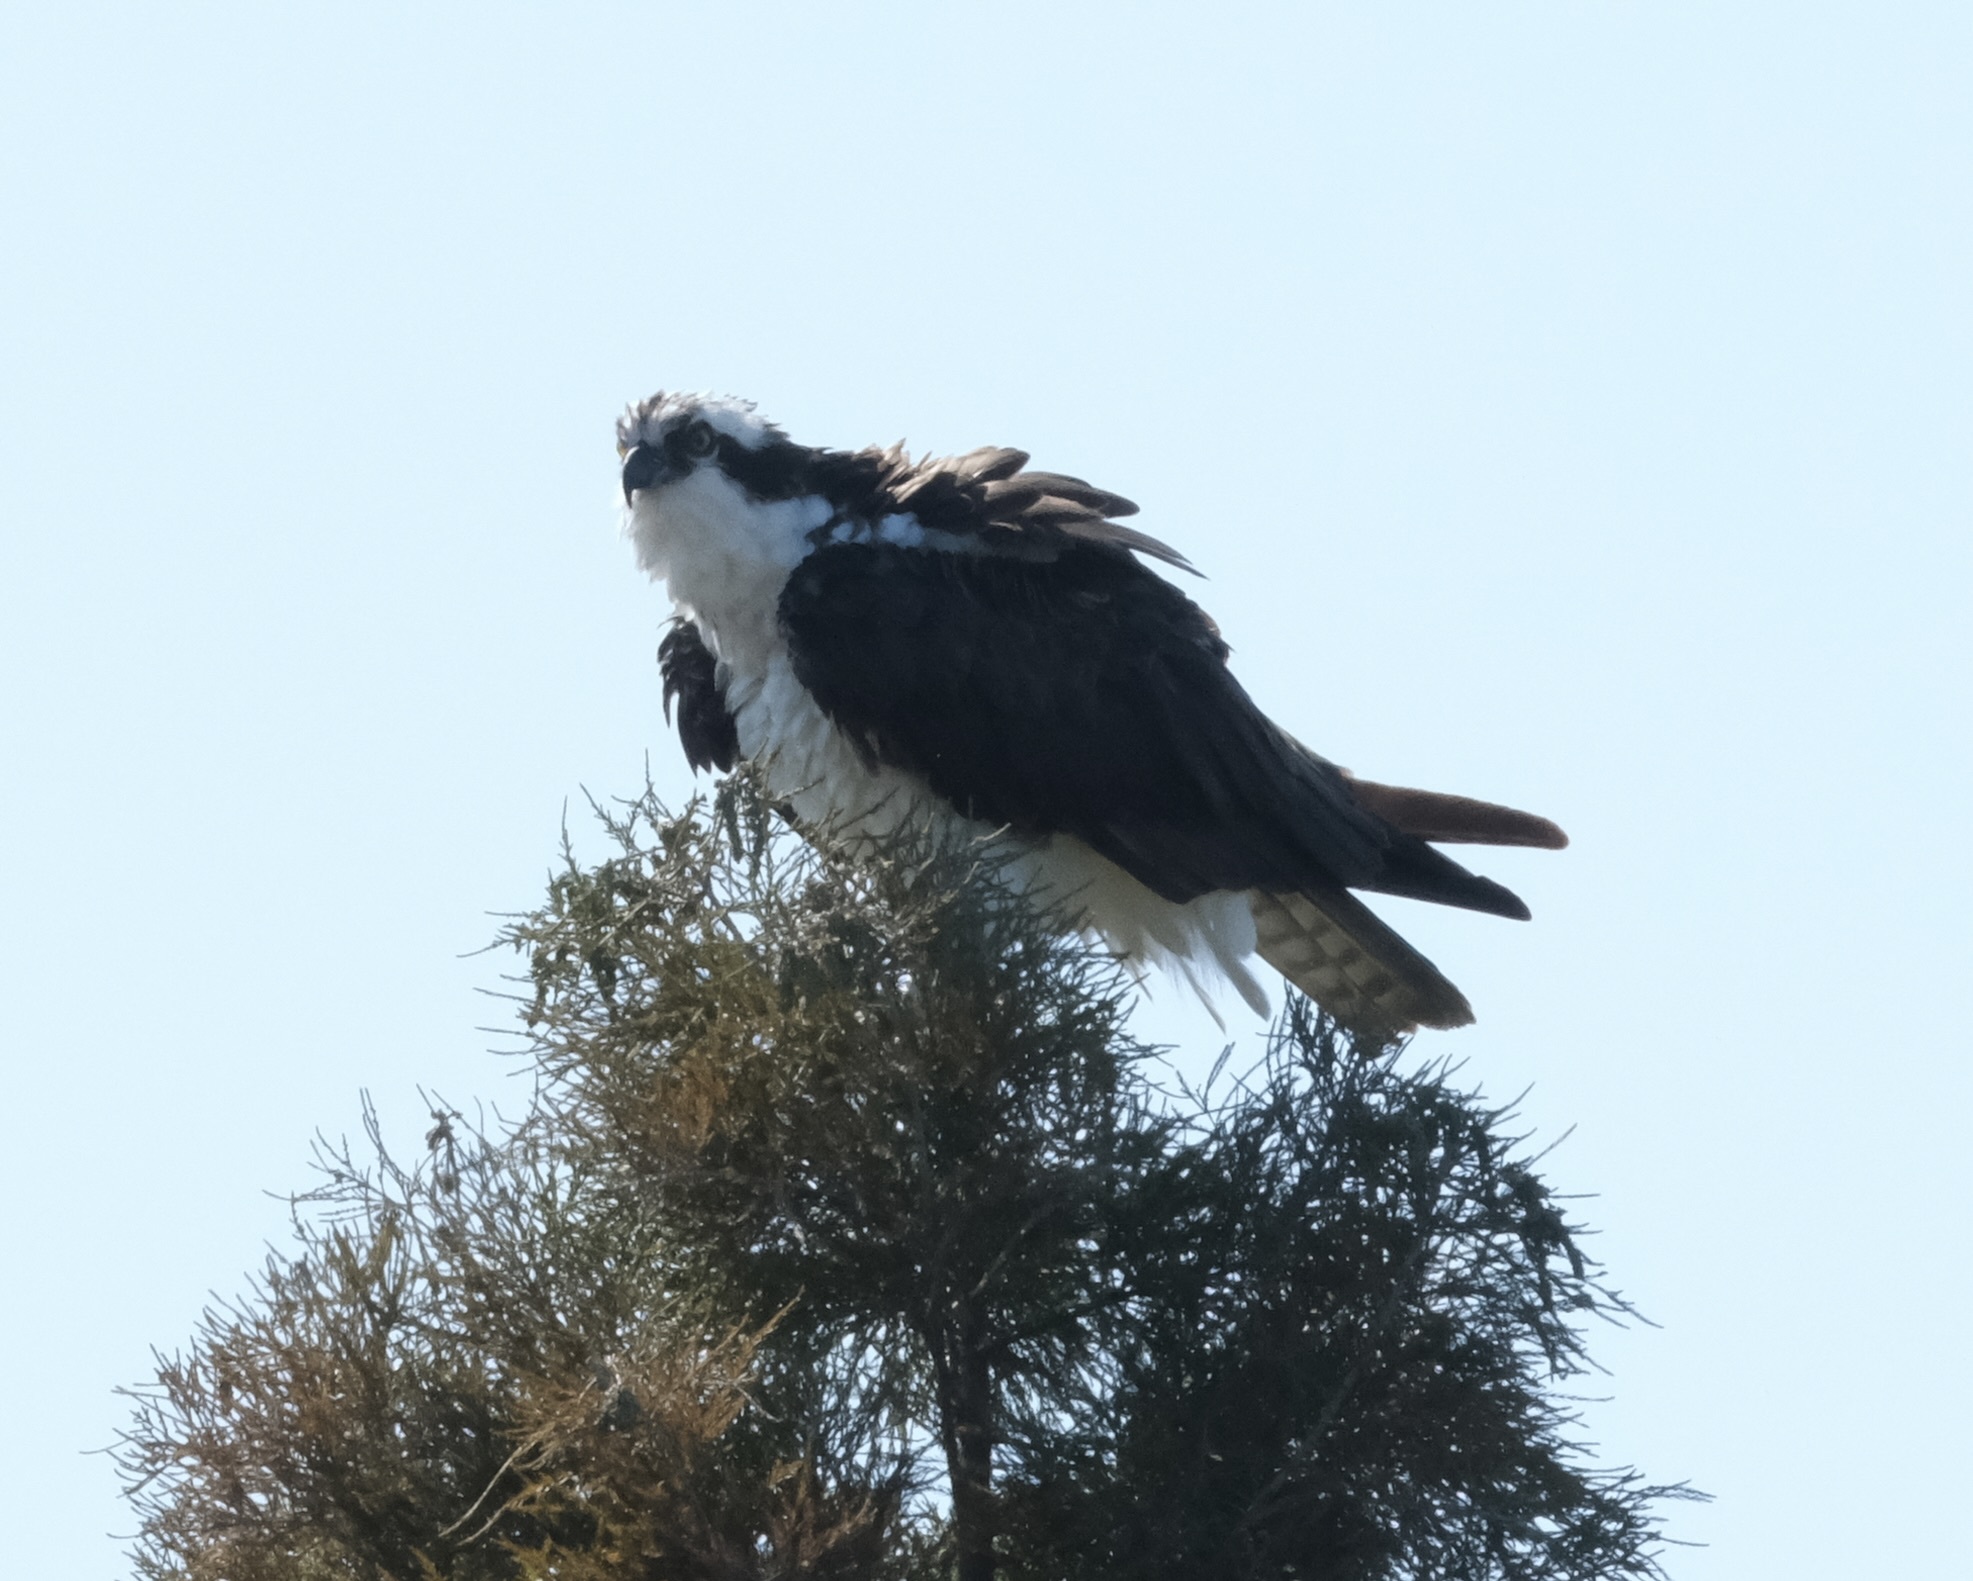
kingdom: Animalia
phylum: Chordata
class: Aves
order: Accipitriformes
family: Pandionidae
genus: Pandion
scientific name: Pandion haliaetus
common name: Osprey
